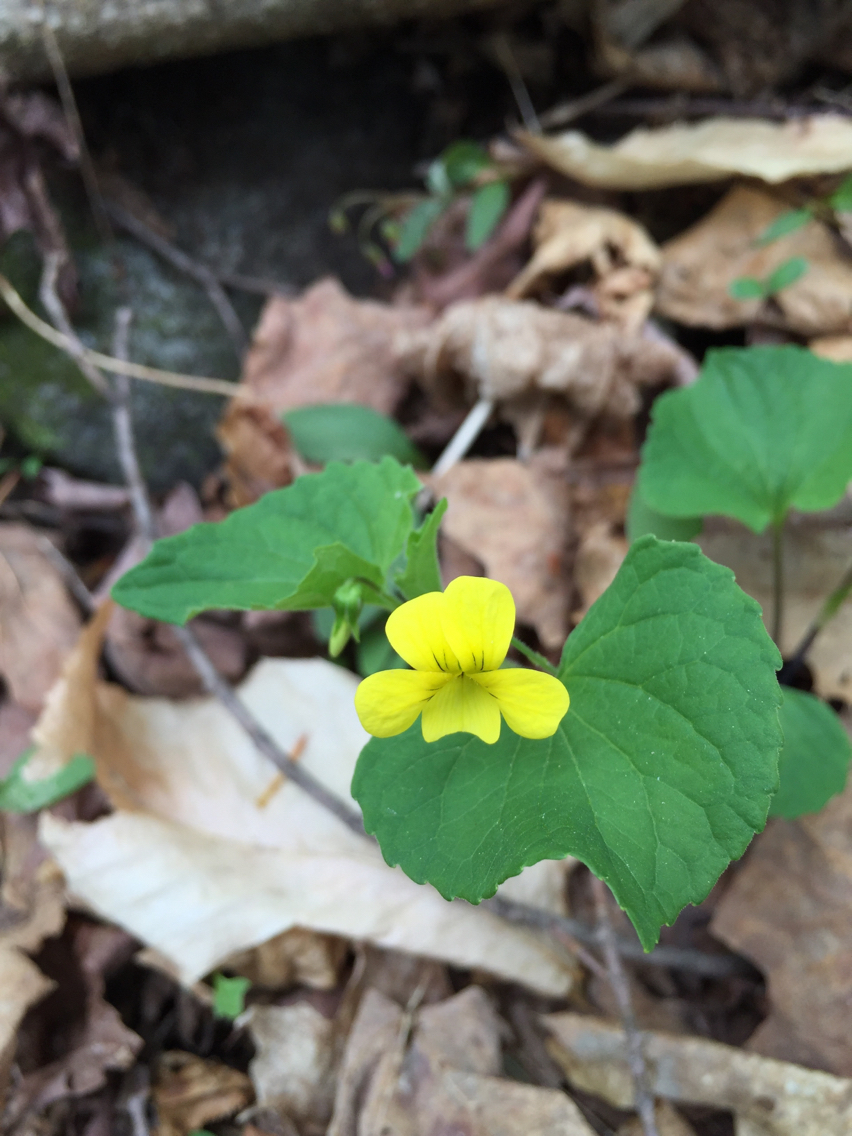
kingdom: Plantae
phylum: Tracheophyta
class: Magnoliopsida
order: Malpighiales
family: Violaceae
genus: Viola
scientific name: Viola eriocarpa
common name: Smooth yellow violet
